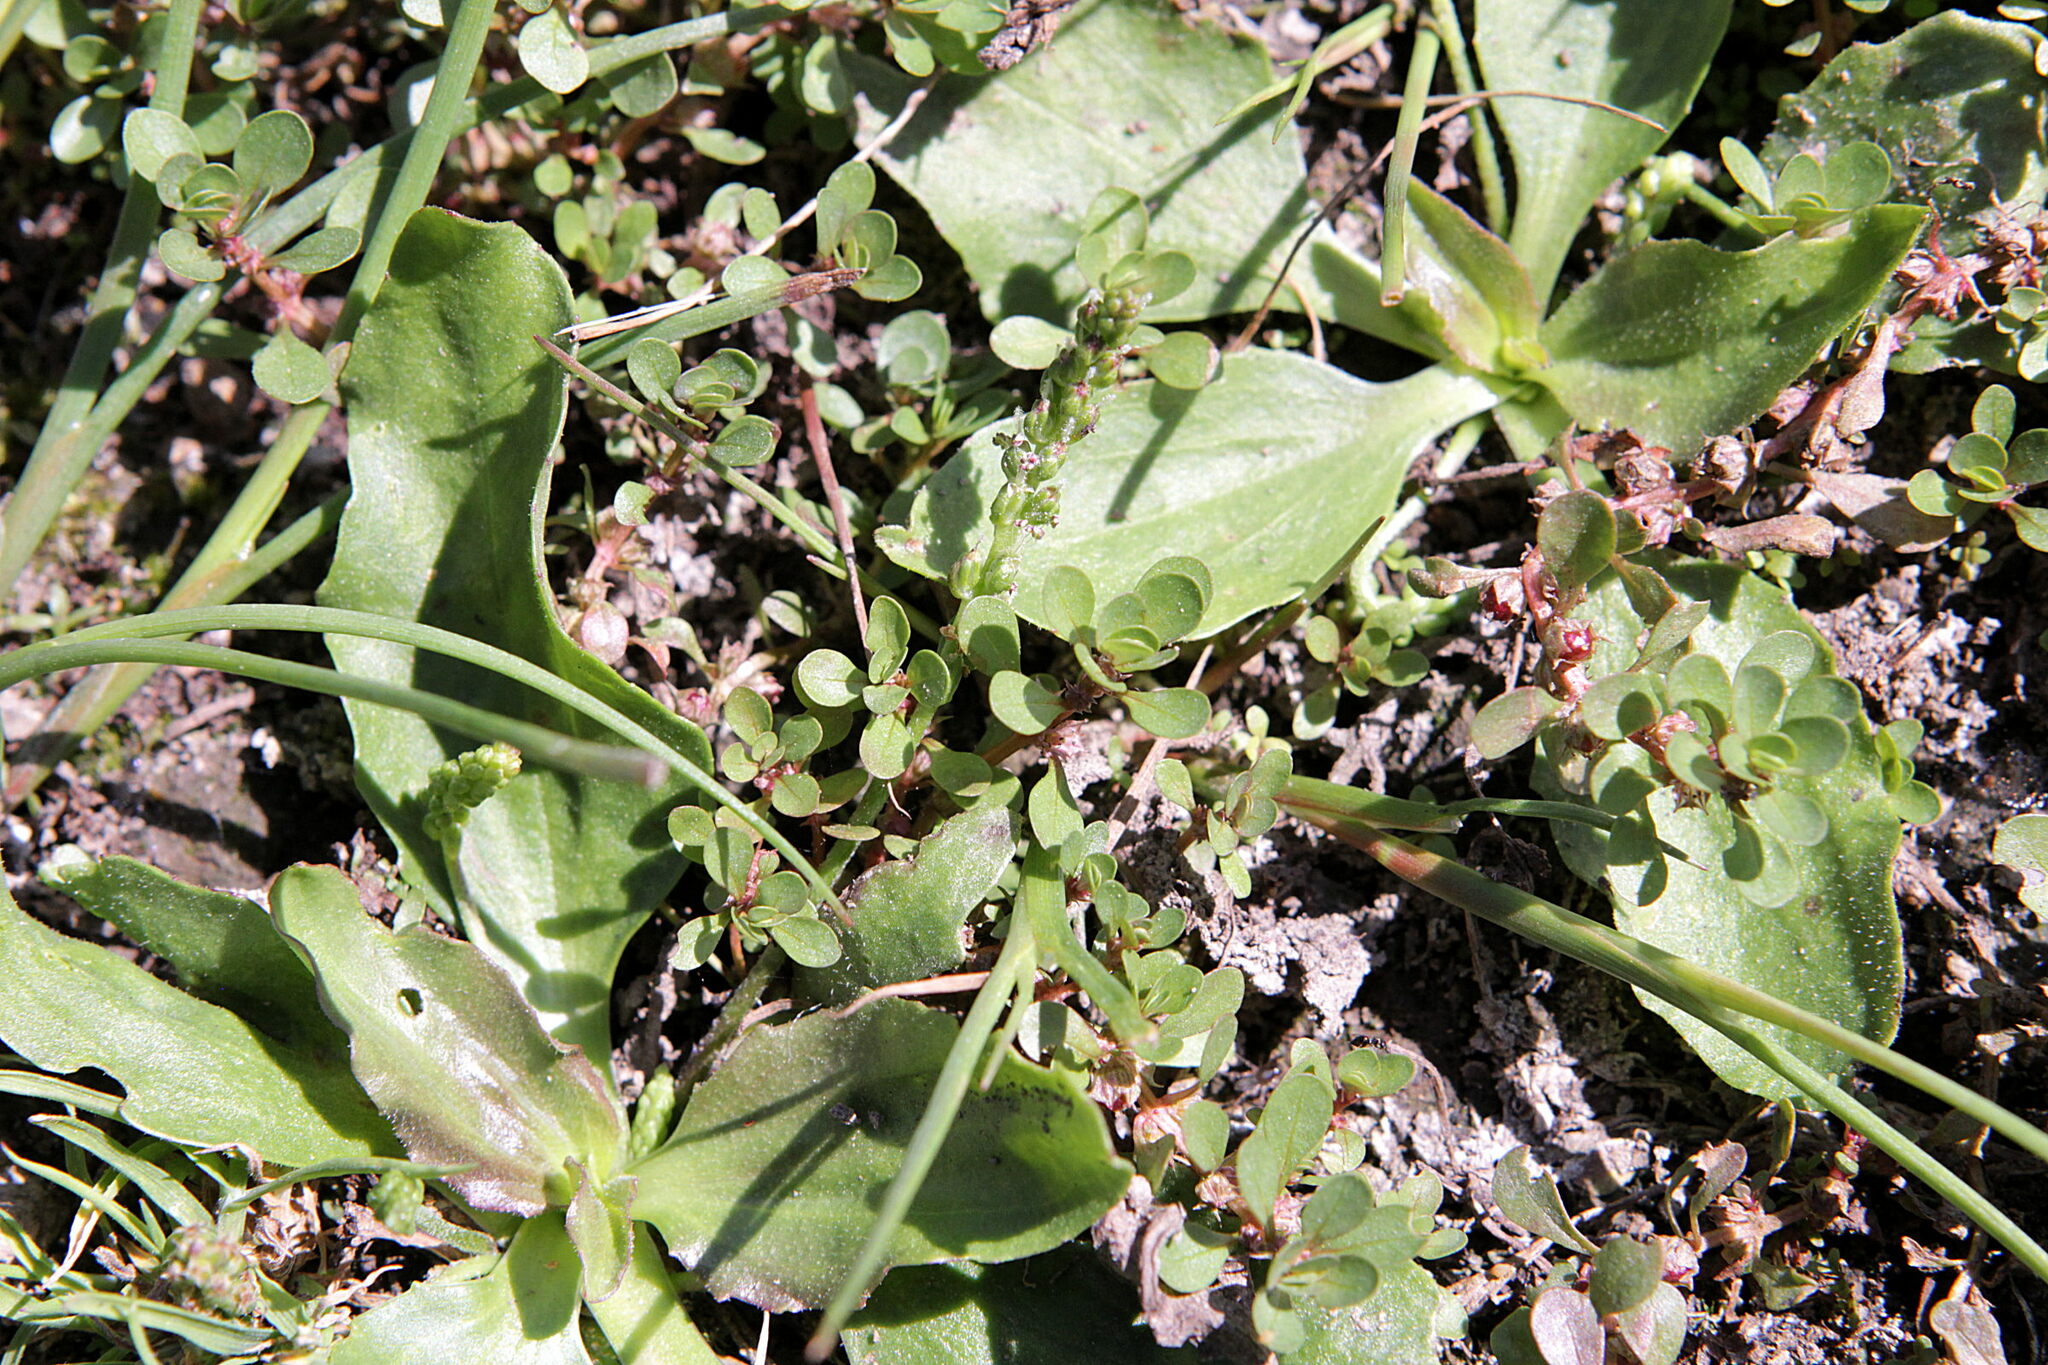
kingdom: Plantae
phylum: Tracheophyta
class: Magnoliopsida
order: Myrtales
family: Lythraceae
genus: Lythrum
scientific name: Lythrum portula
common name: Water purslane
